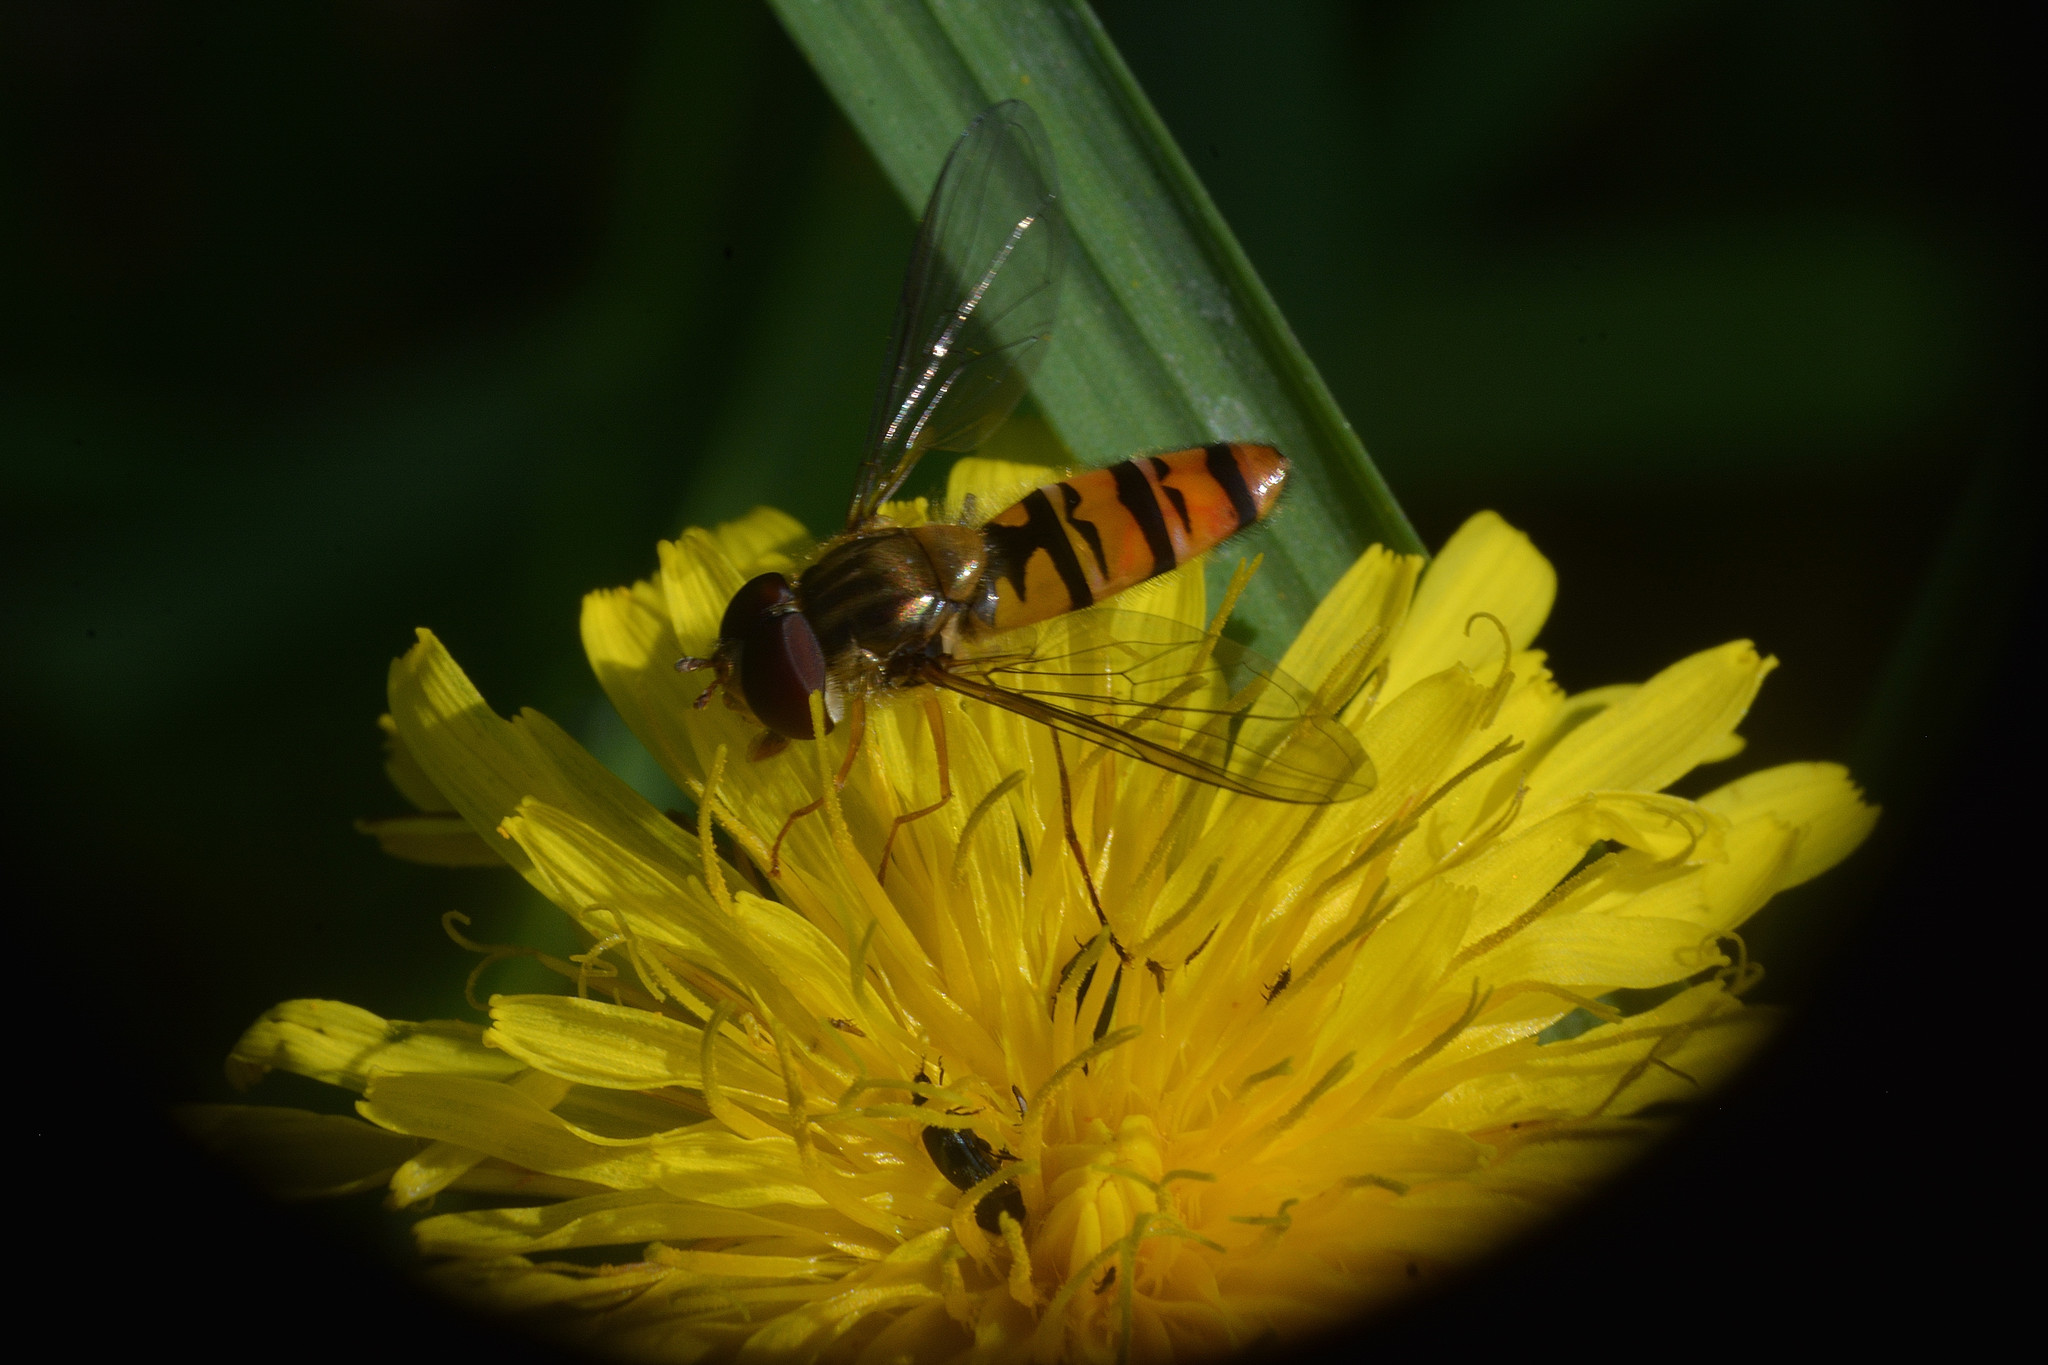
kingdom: Animalia
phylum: Arthropoda
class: Insecta
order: Diptera
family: Syrphidae
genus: Episyrphus
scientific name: Episyrphus balteatus
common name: Marmalade hoverfly
